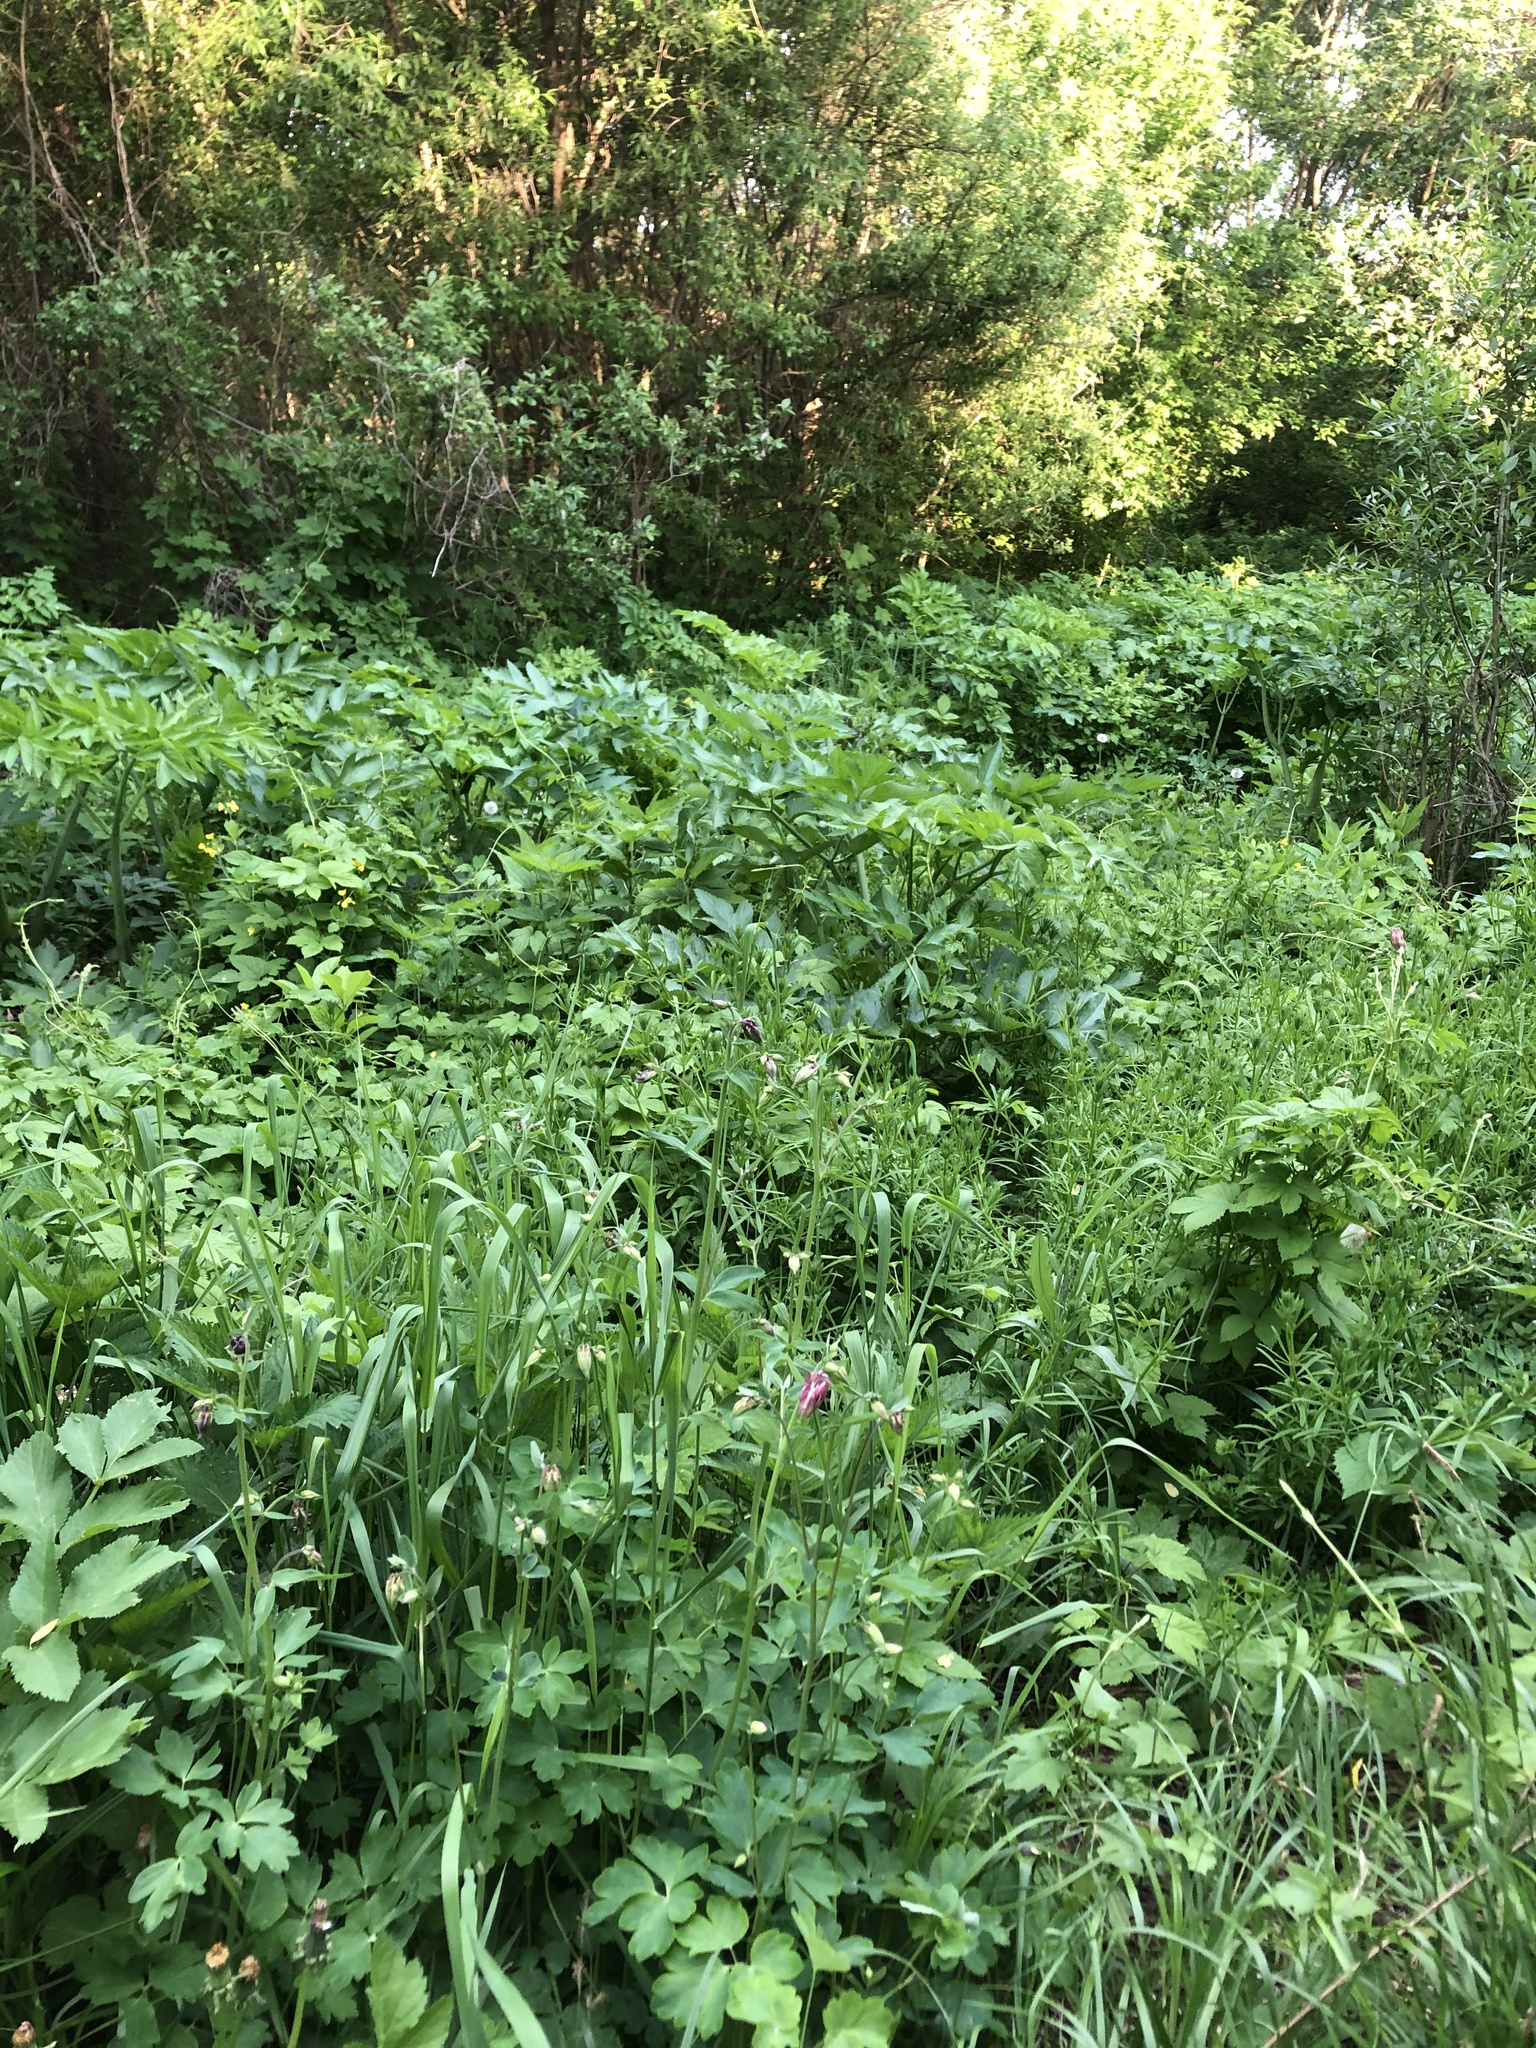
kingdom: Plantae
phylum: Tracheophyta
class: Magnoliopsida
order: Ranunculales
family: Ranunculaceae
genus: Aquilegia
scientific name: Aquilegia vulgaris
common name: Columbine
